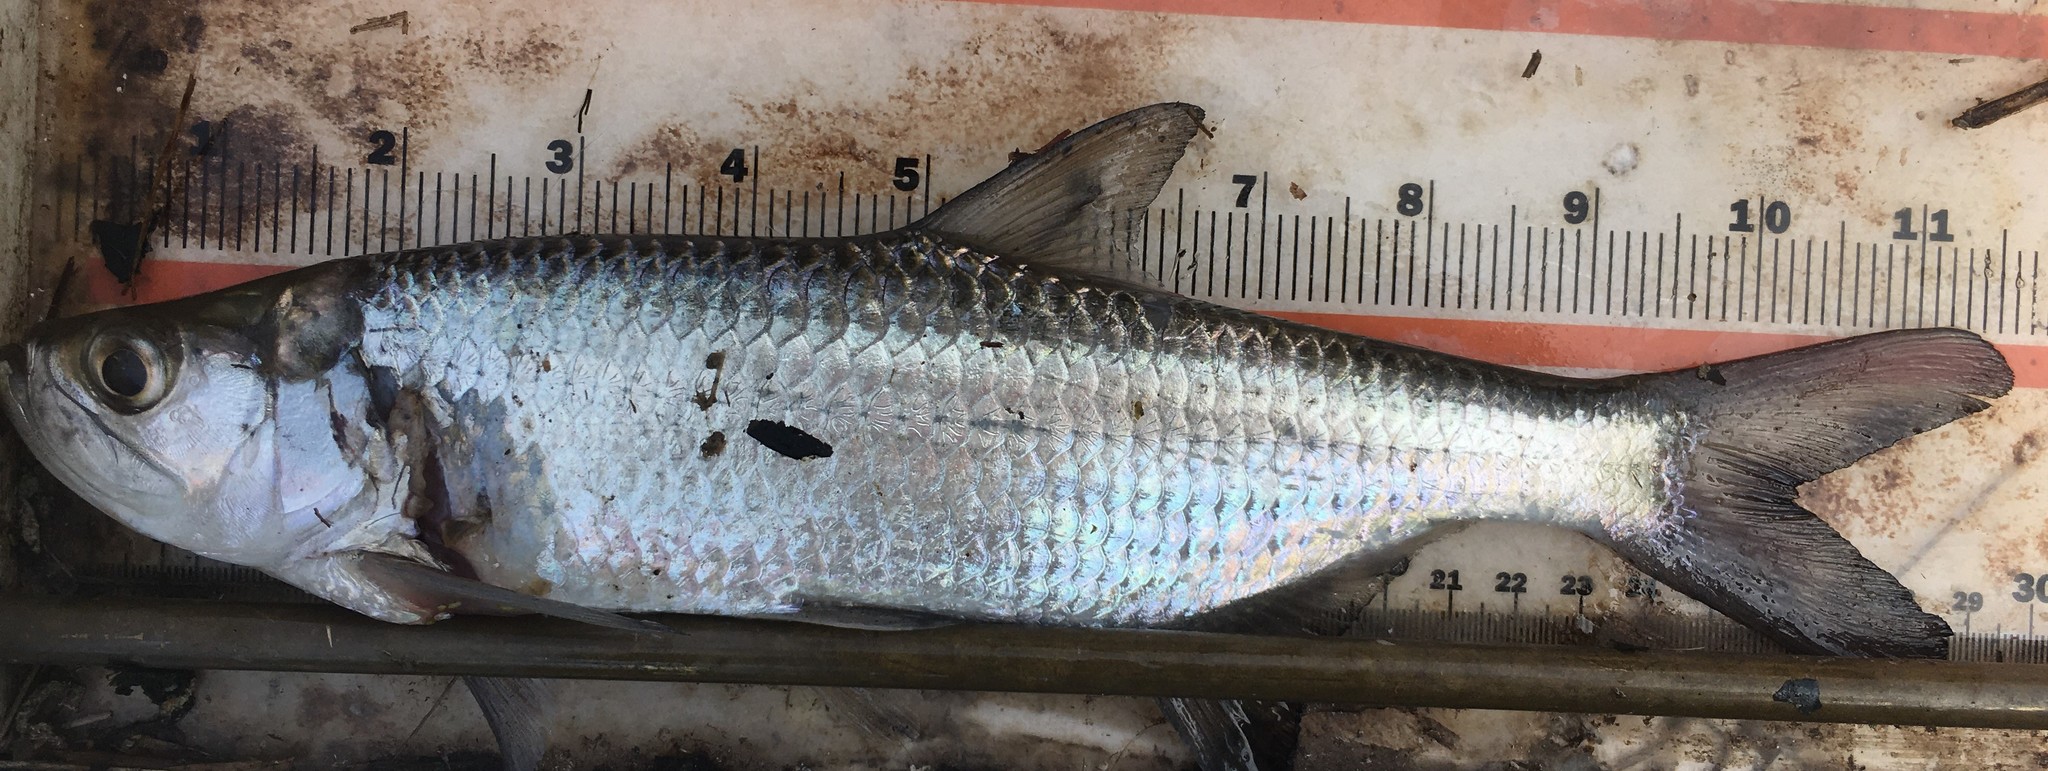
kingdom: Animalia
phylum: Chordata
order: Elopiformes
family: Megalopidae
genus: Megalops
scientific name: Megalops atlanticus
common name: Tarpon
